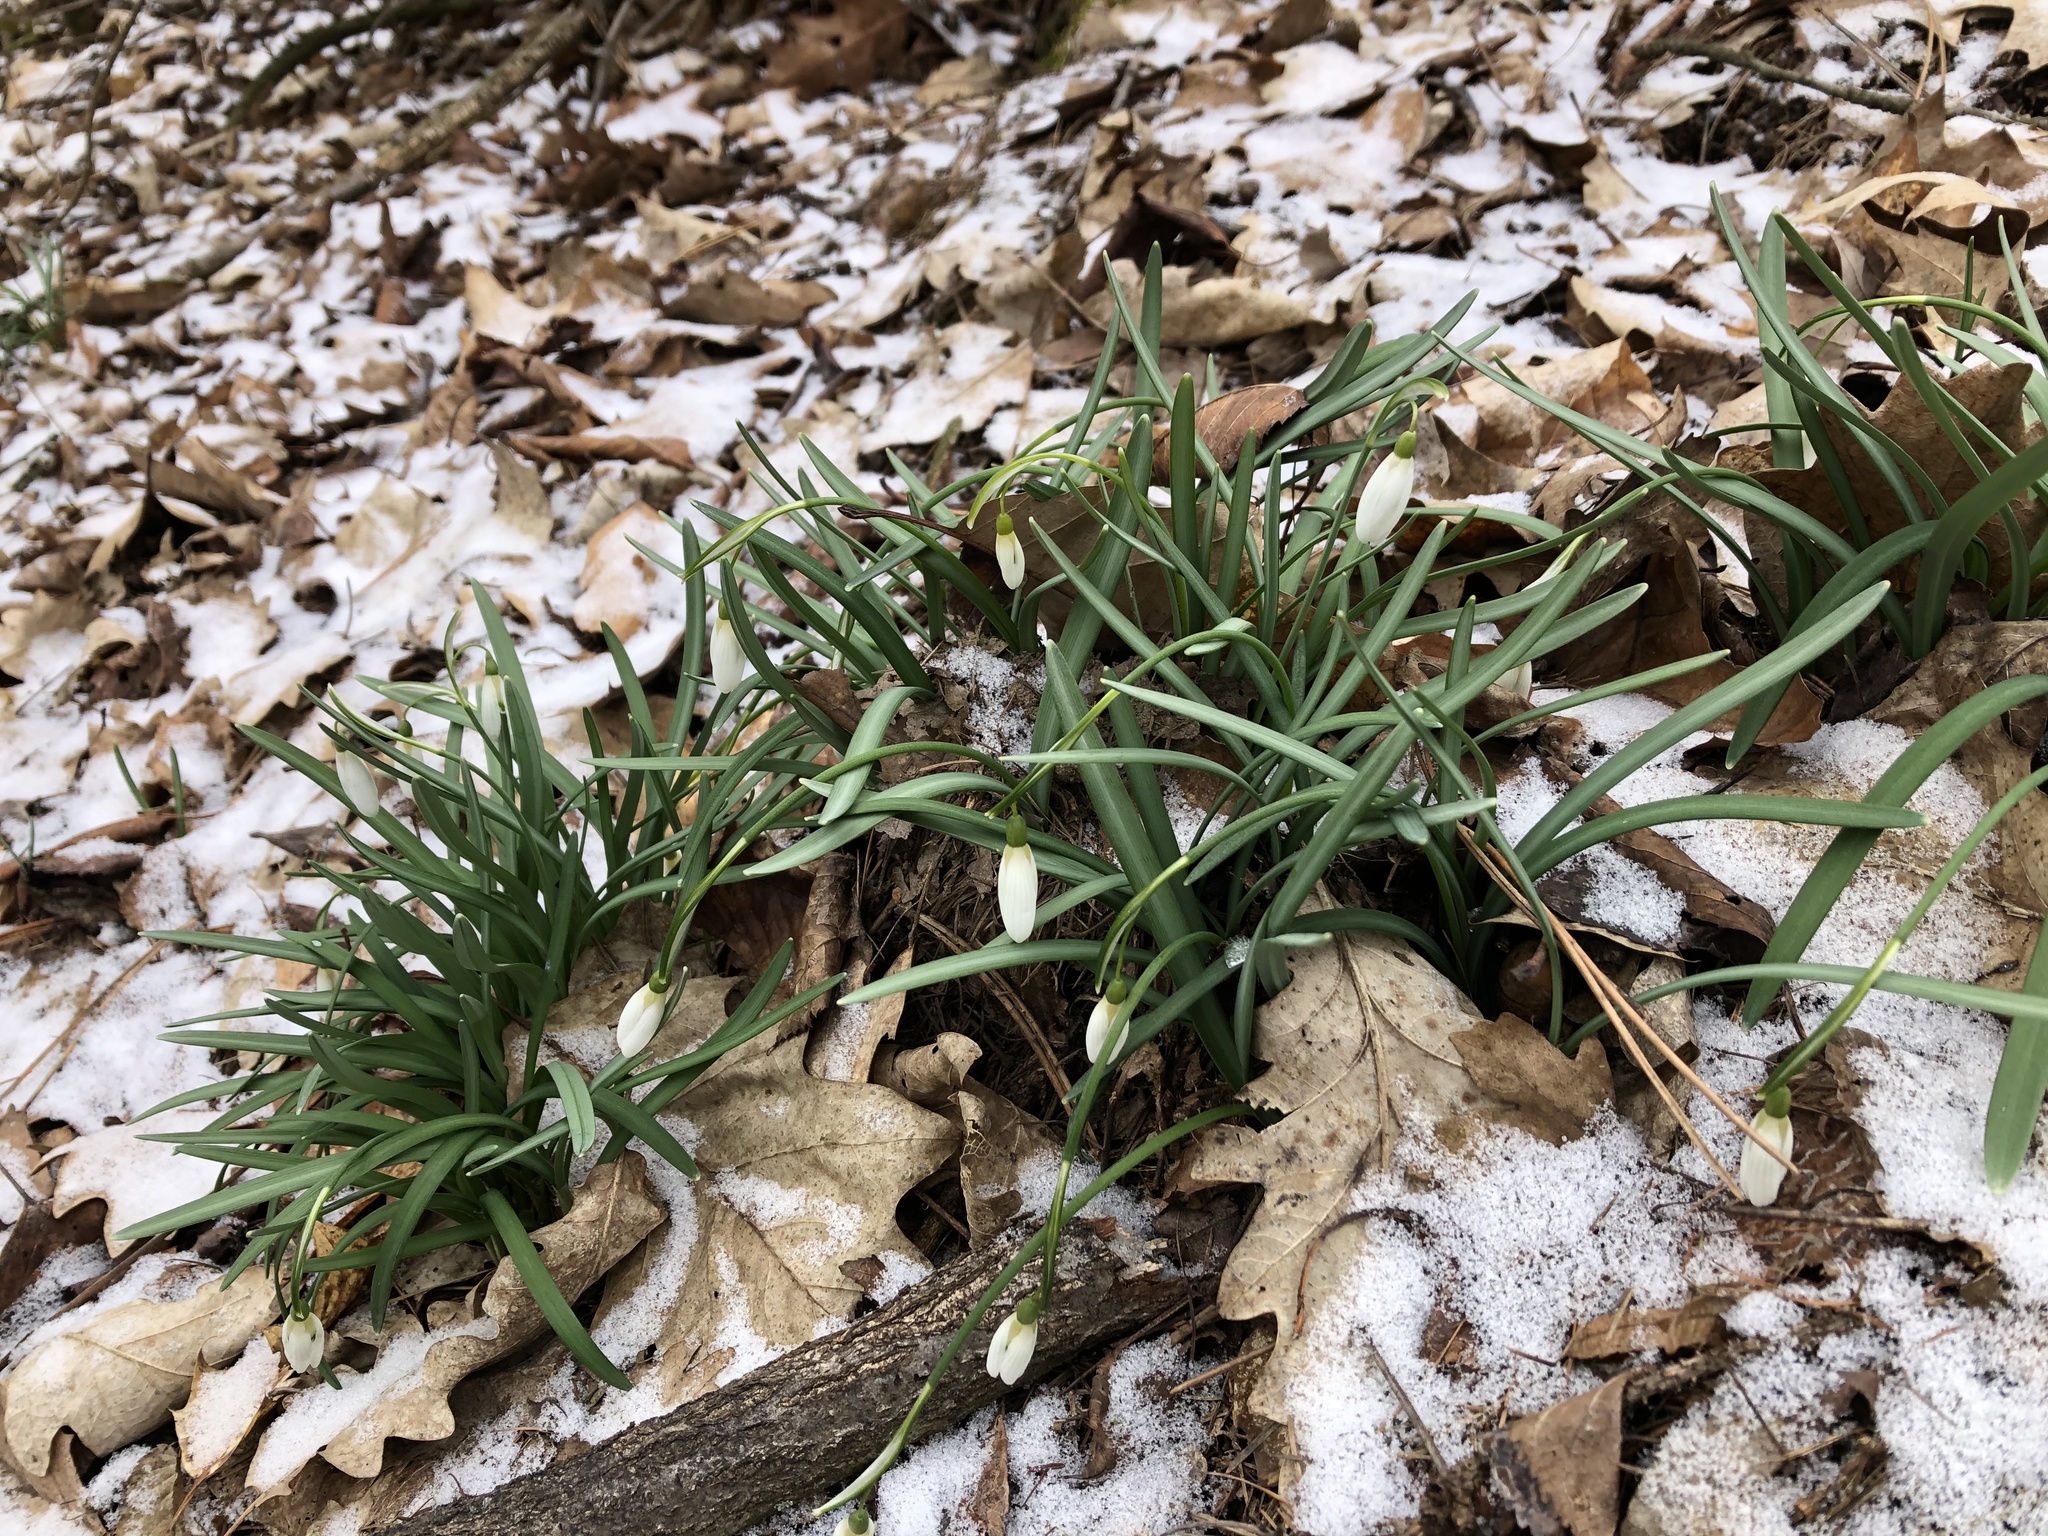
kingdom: Plantae
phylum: Tracheophyta
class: Liliopsida
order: Asparagales
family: Amaryllidaceae
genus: Galanthus
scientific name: Galanthus nivalis
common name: Snowdrop
